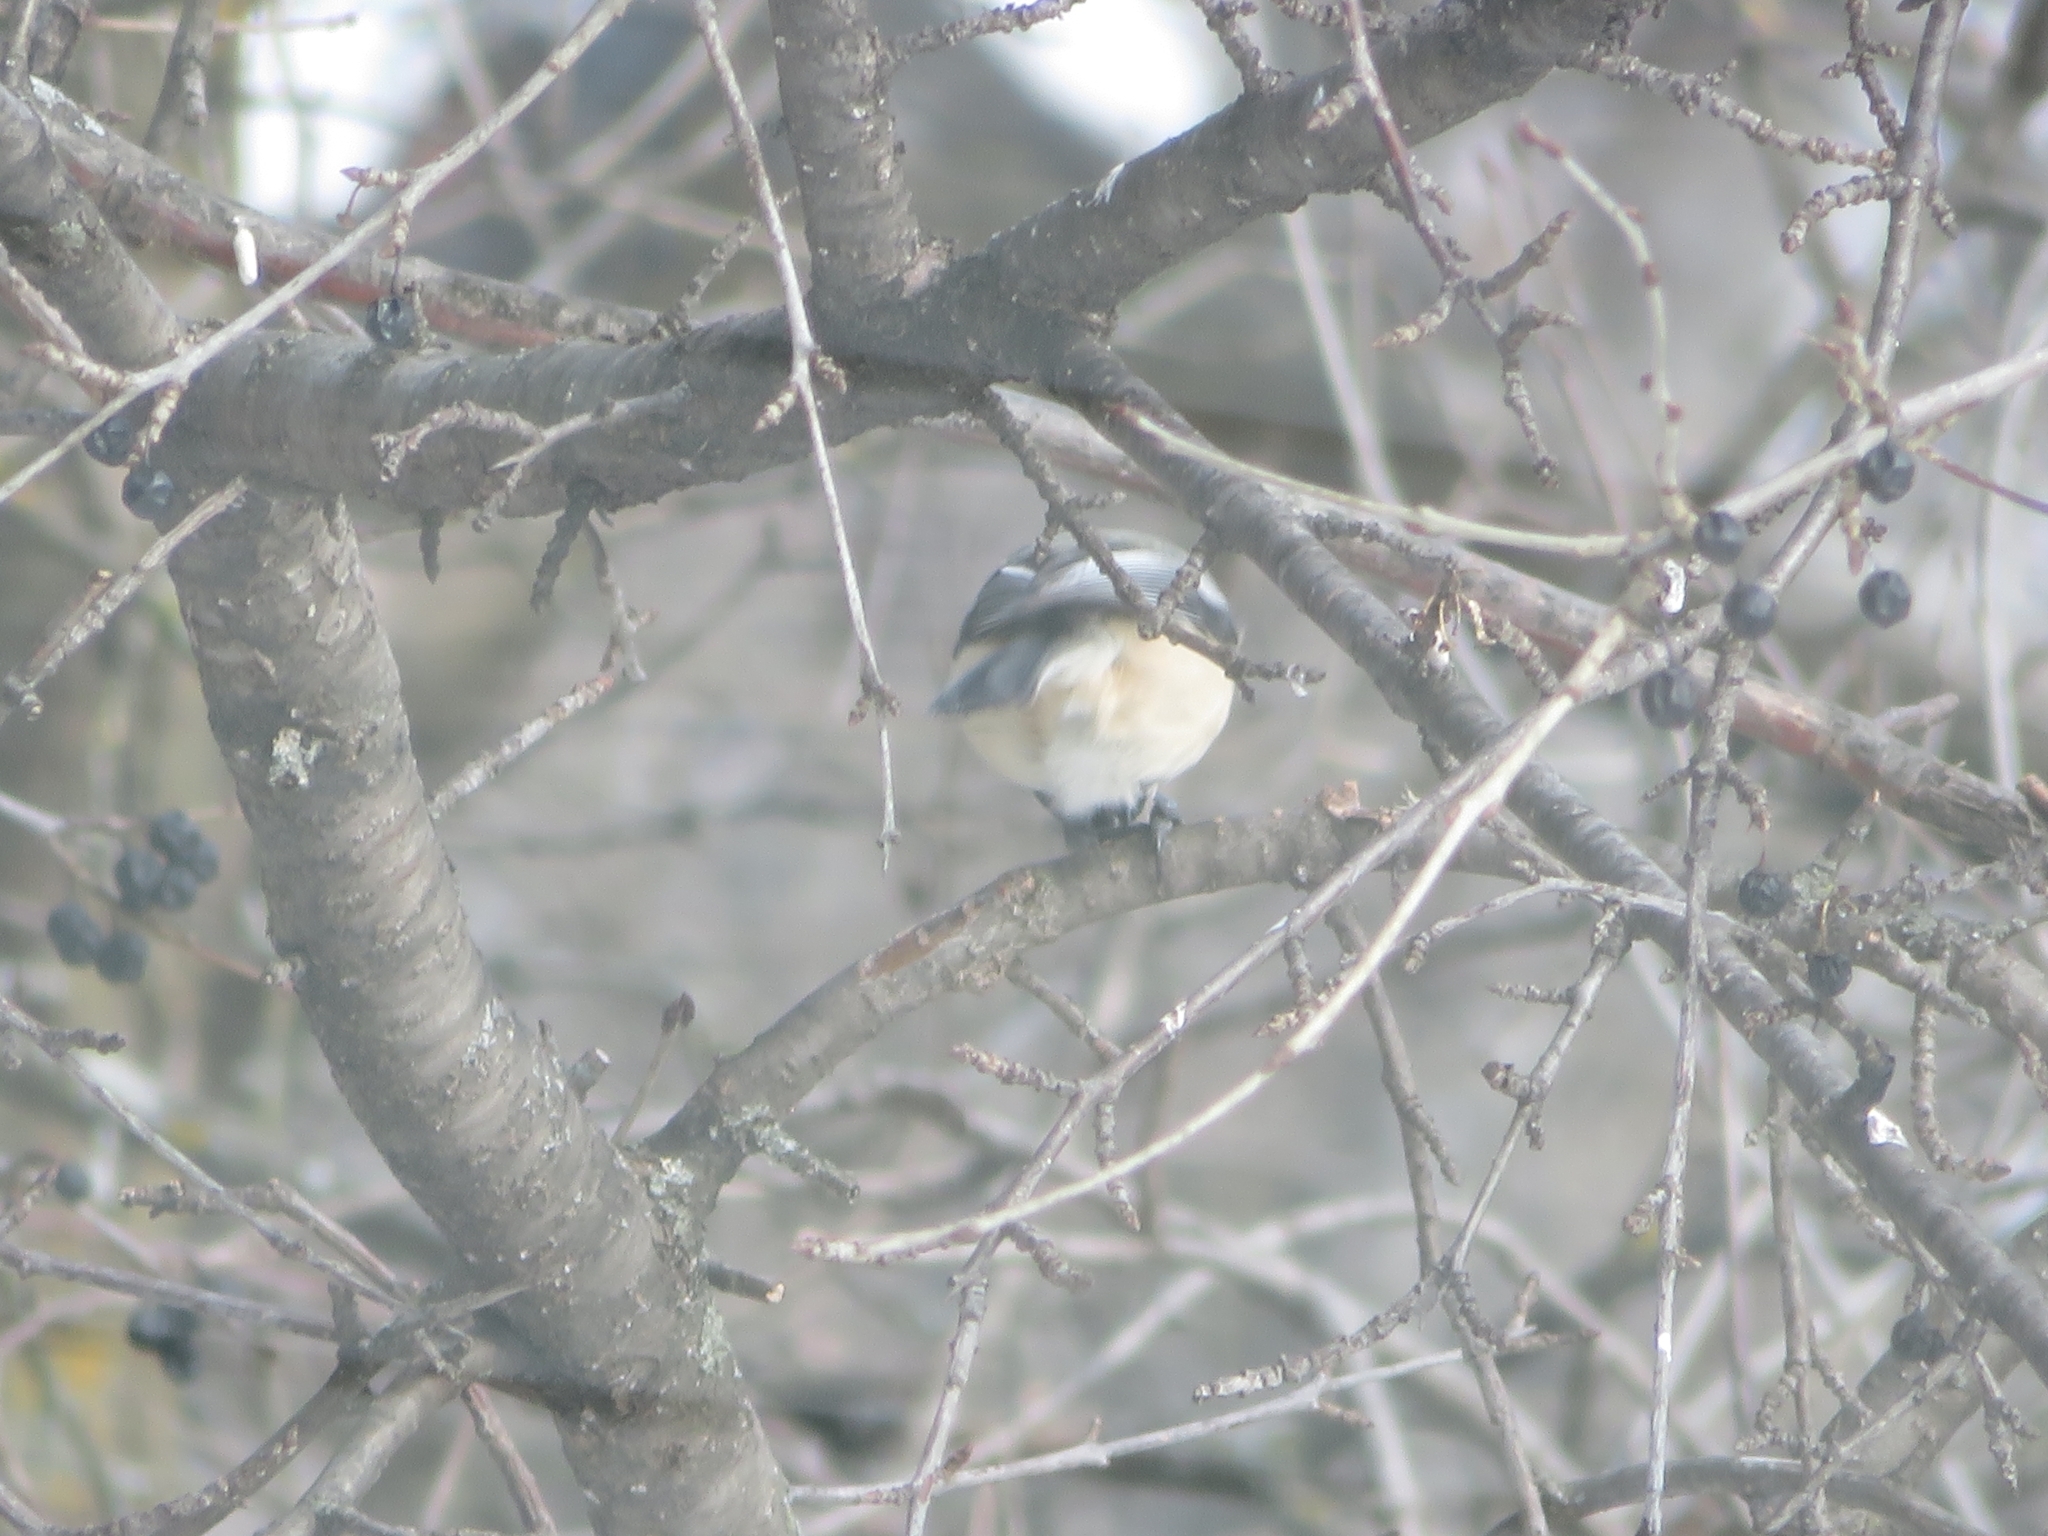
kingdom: Animalia
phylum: Chordata
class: Aves
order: Passeriformes
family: Paridae
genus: Poecile
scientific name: Poecile atricapillus
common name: Black-capped chickadee
